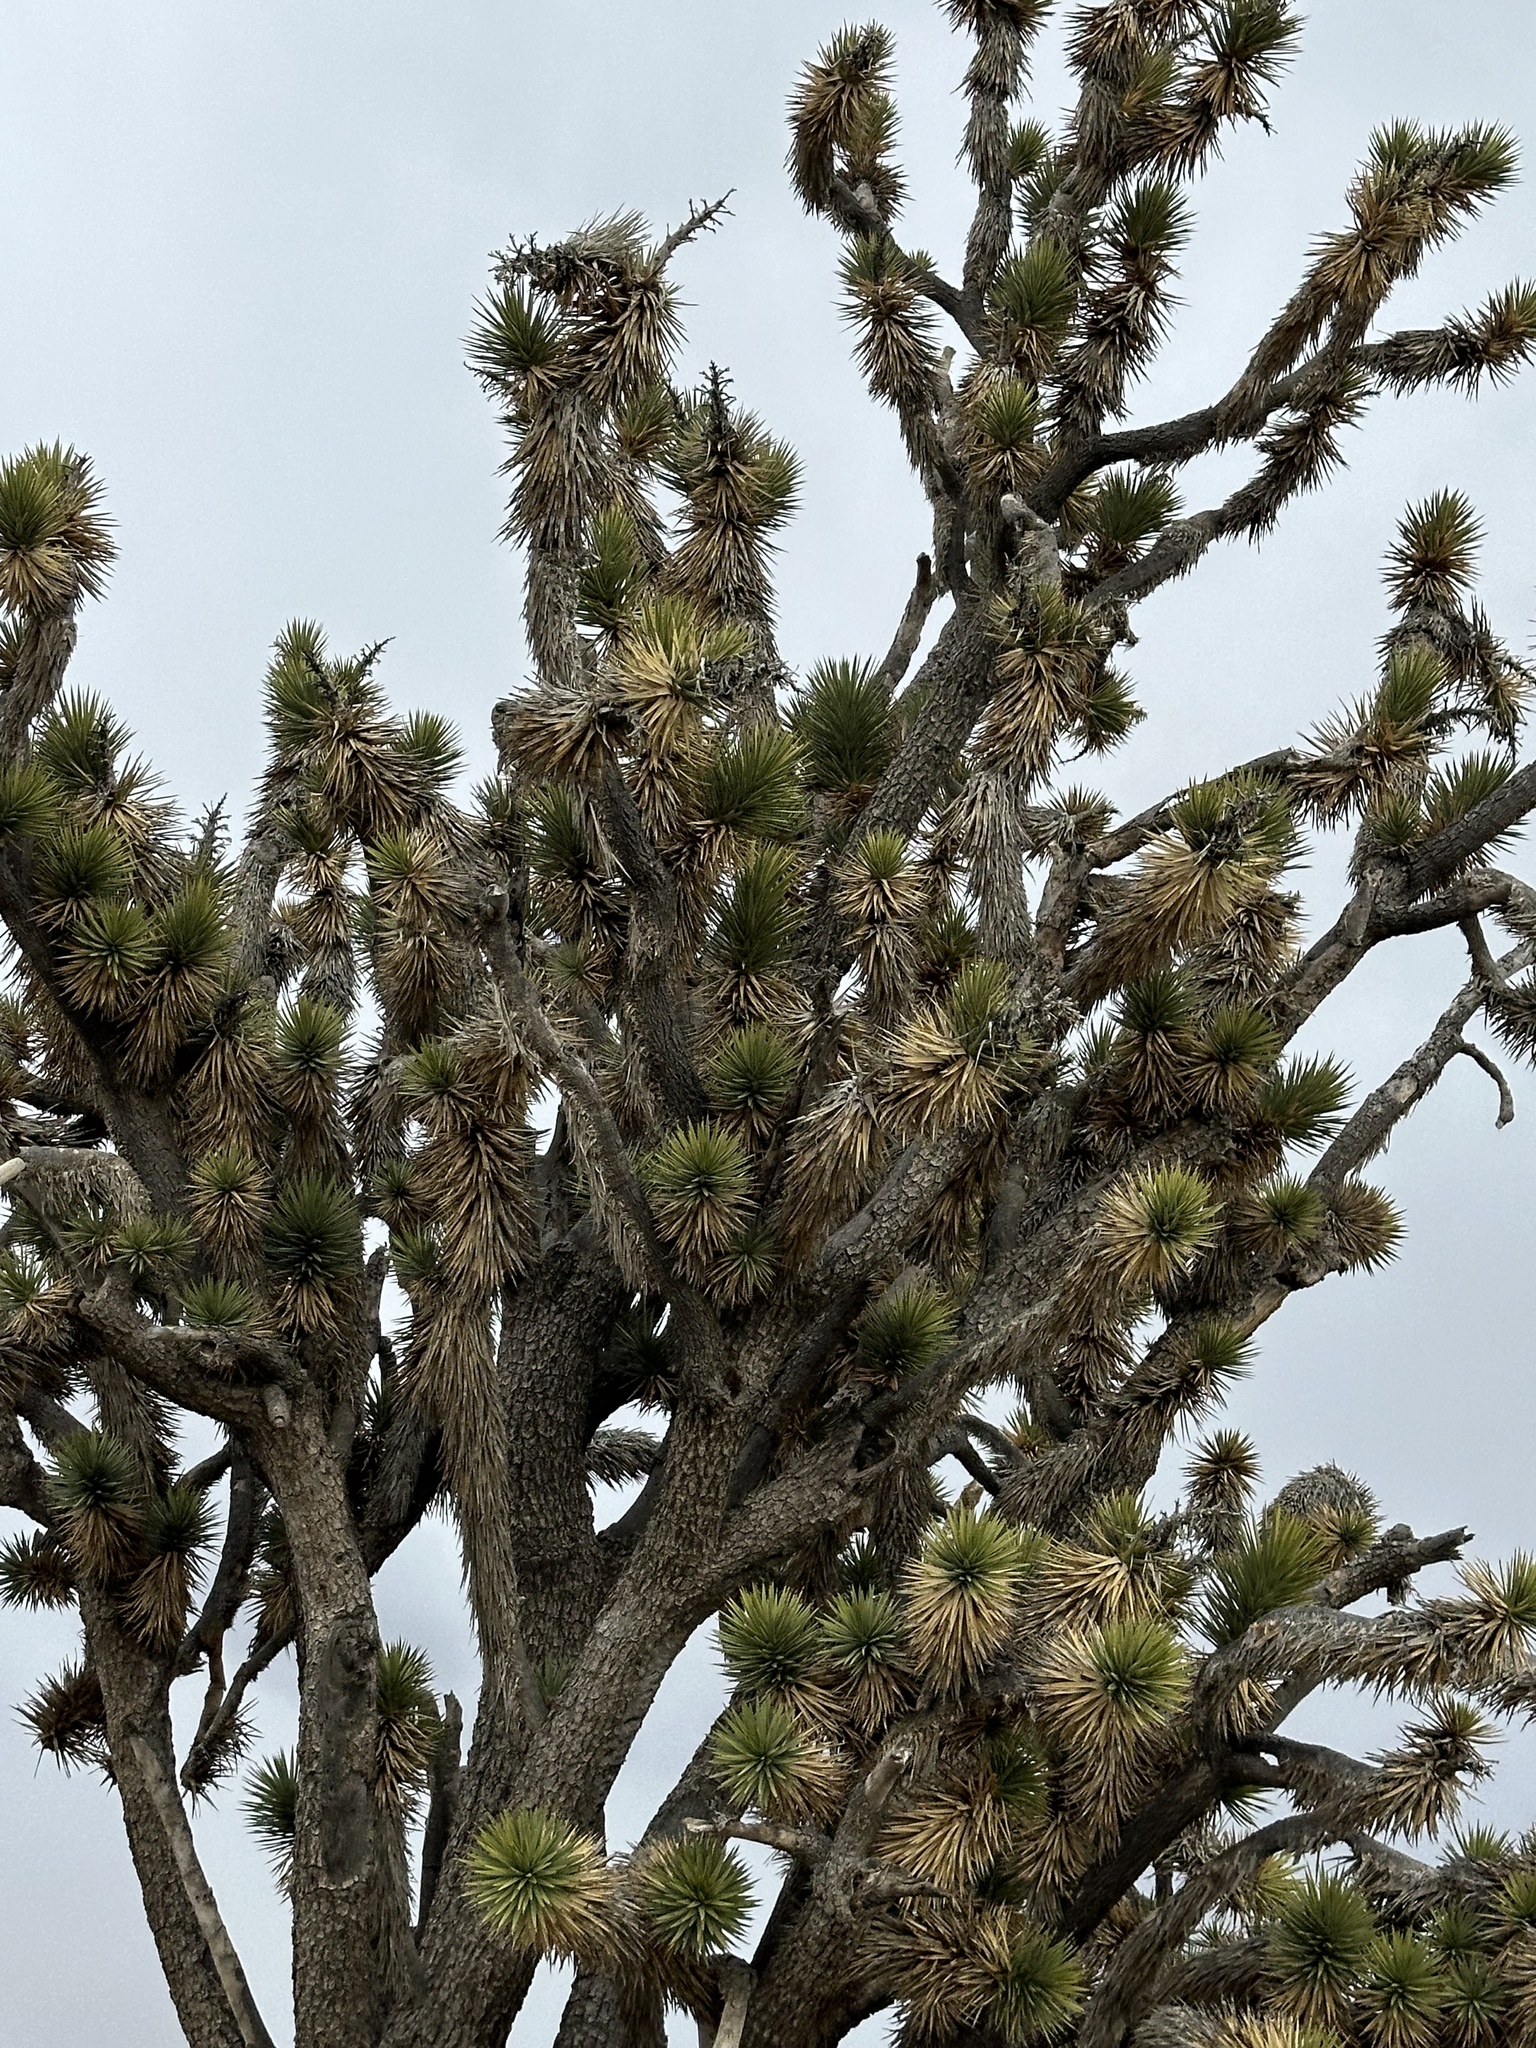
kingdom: Plantae
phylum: Tracheophyta
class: Liliopsida
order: Asparagales
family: Asparagaceae
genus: Yucca
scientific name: Yucca brevifolia
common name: Joshua tree
